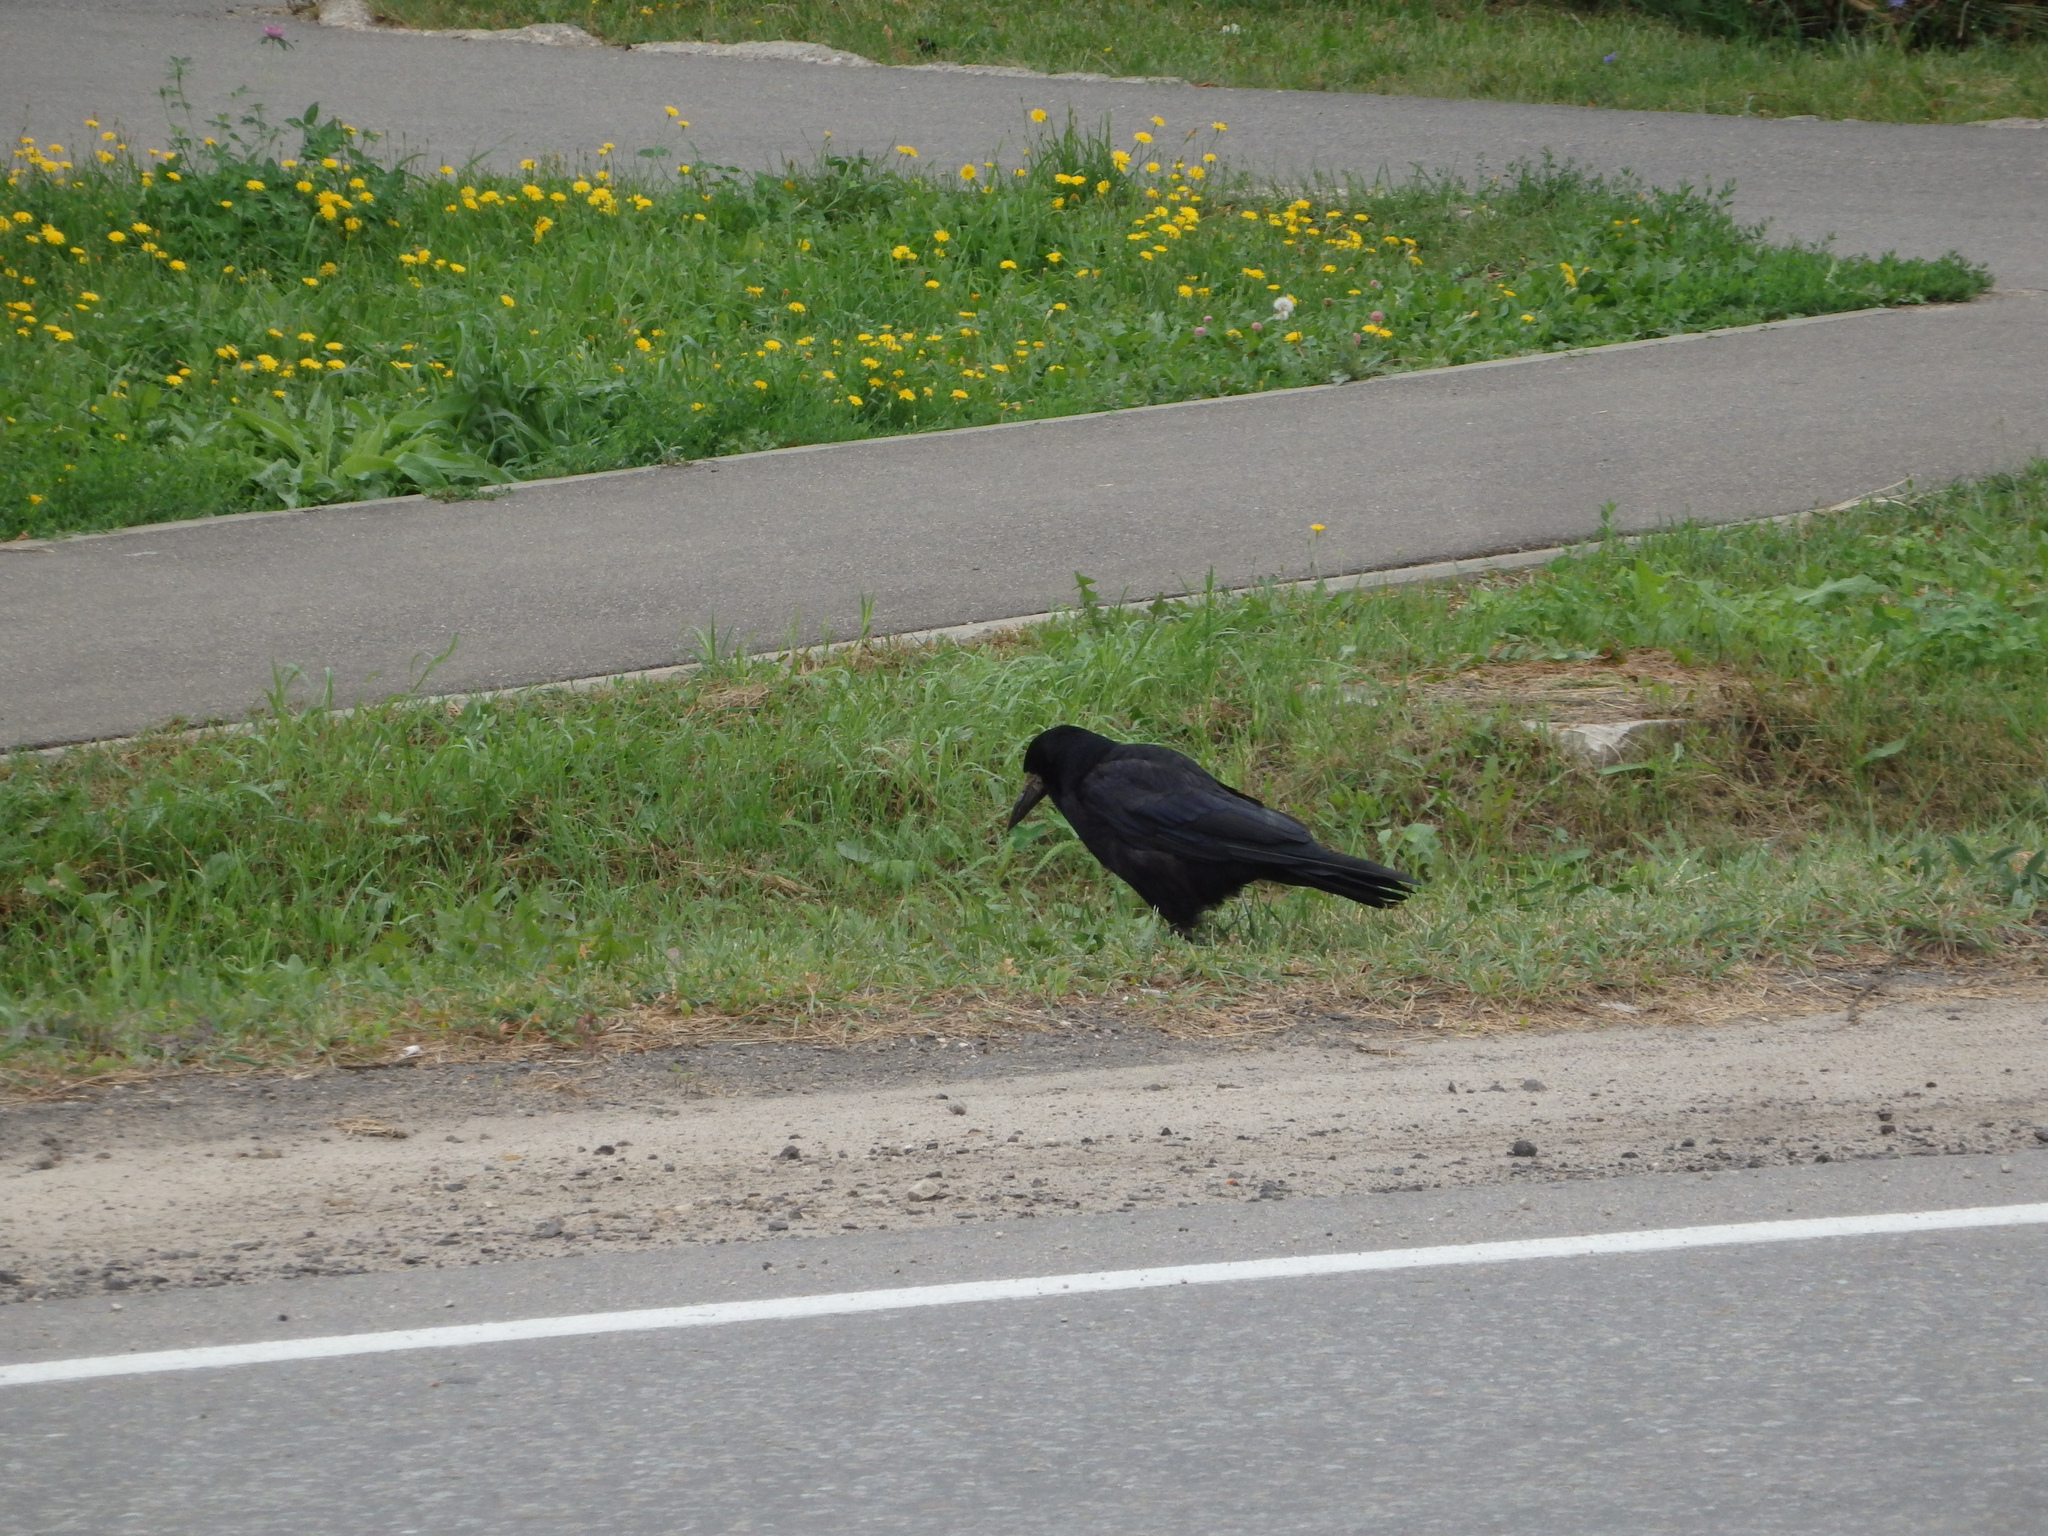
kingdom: Animalia
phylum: Chordata
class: Aves
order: Passeriformes
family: Corvidae
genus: Corvus
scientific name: Corvus frugilegus
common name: Rook
